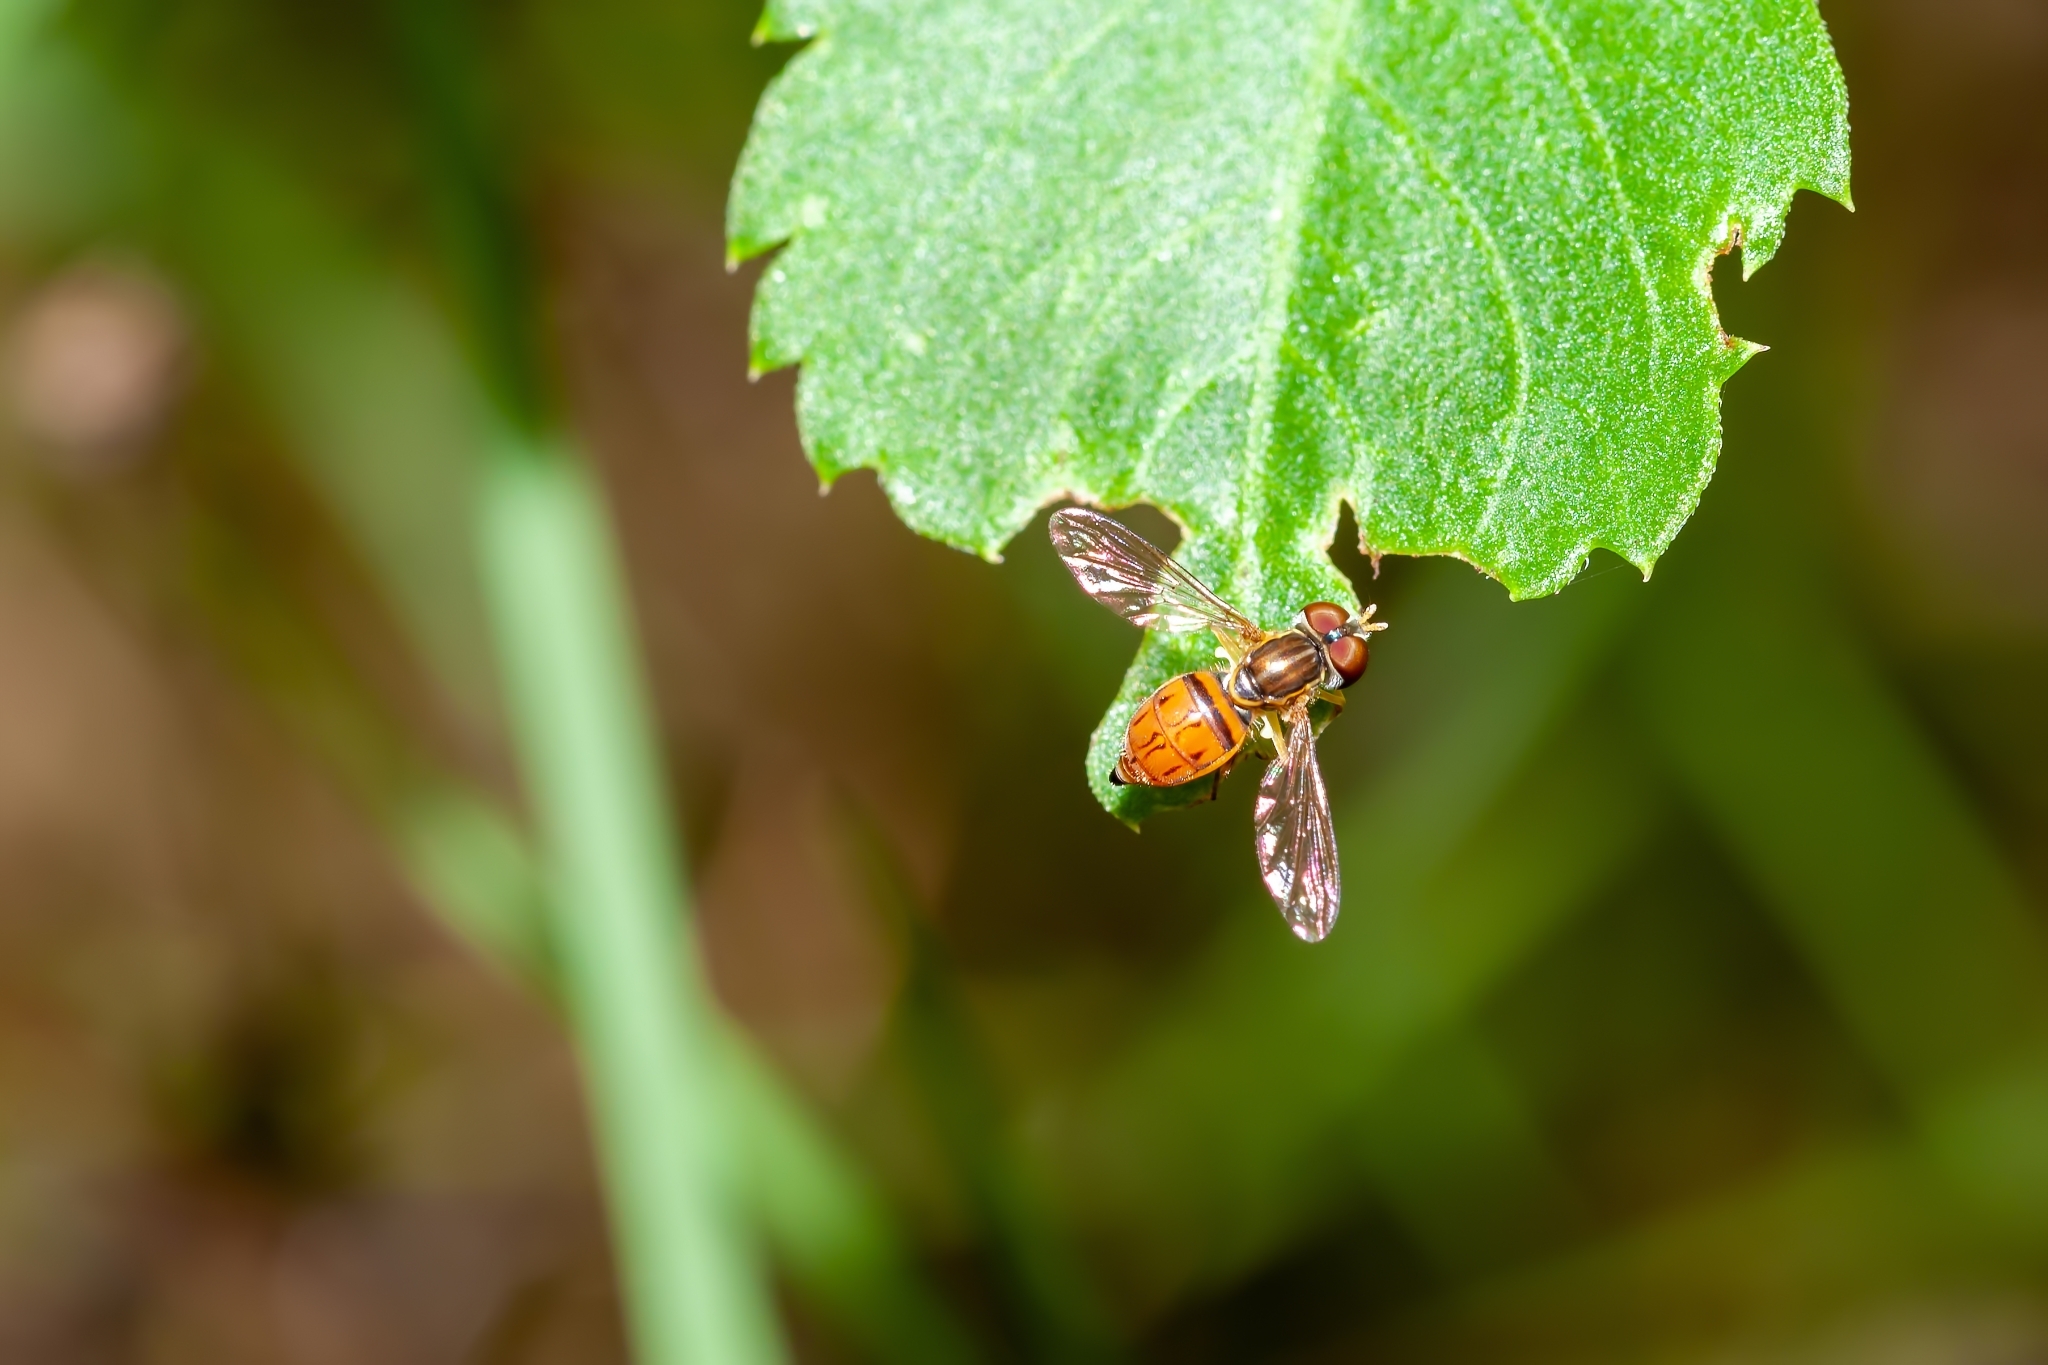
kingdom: Animalia
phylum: Arthropoda
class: Insecta
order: Diptera
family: Syrphidae
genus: Toxomerus
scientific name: Toxomerus boscii
